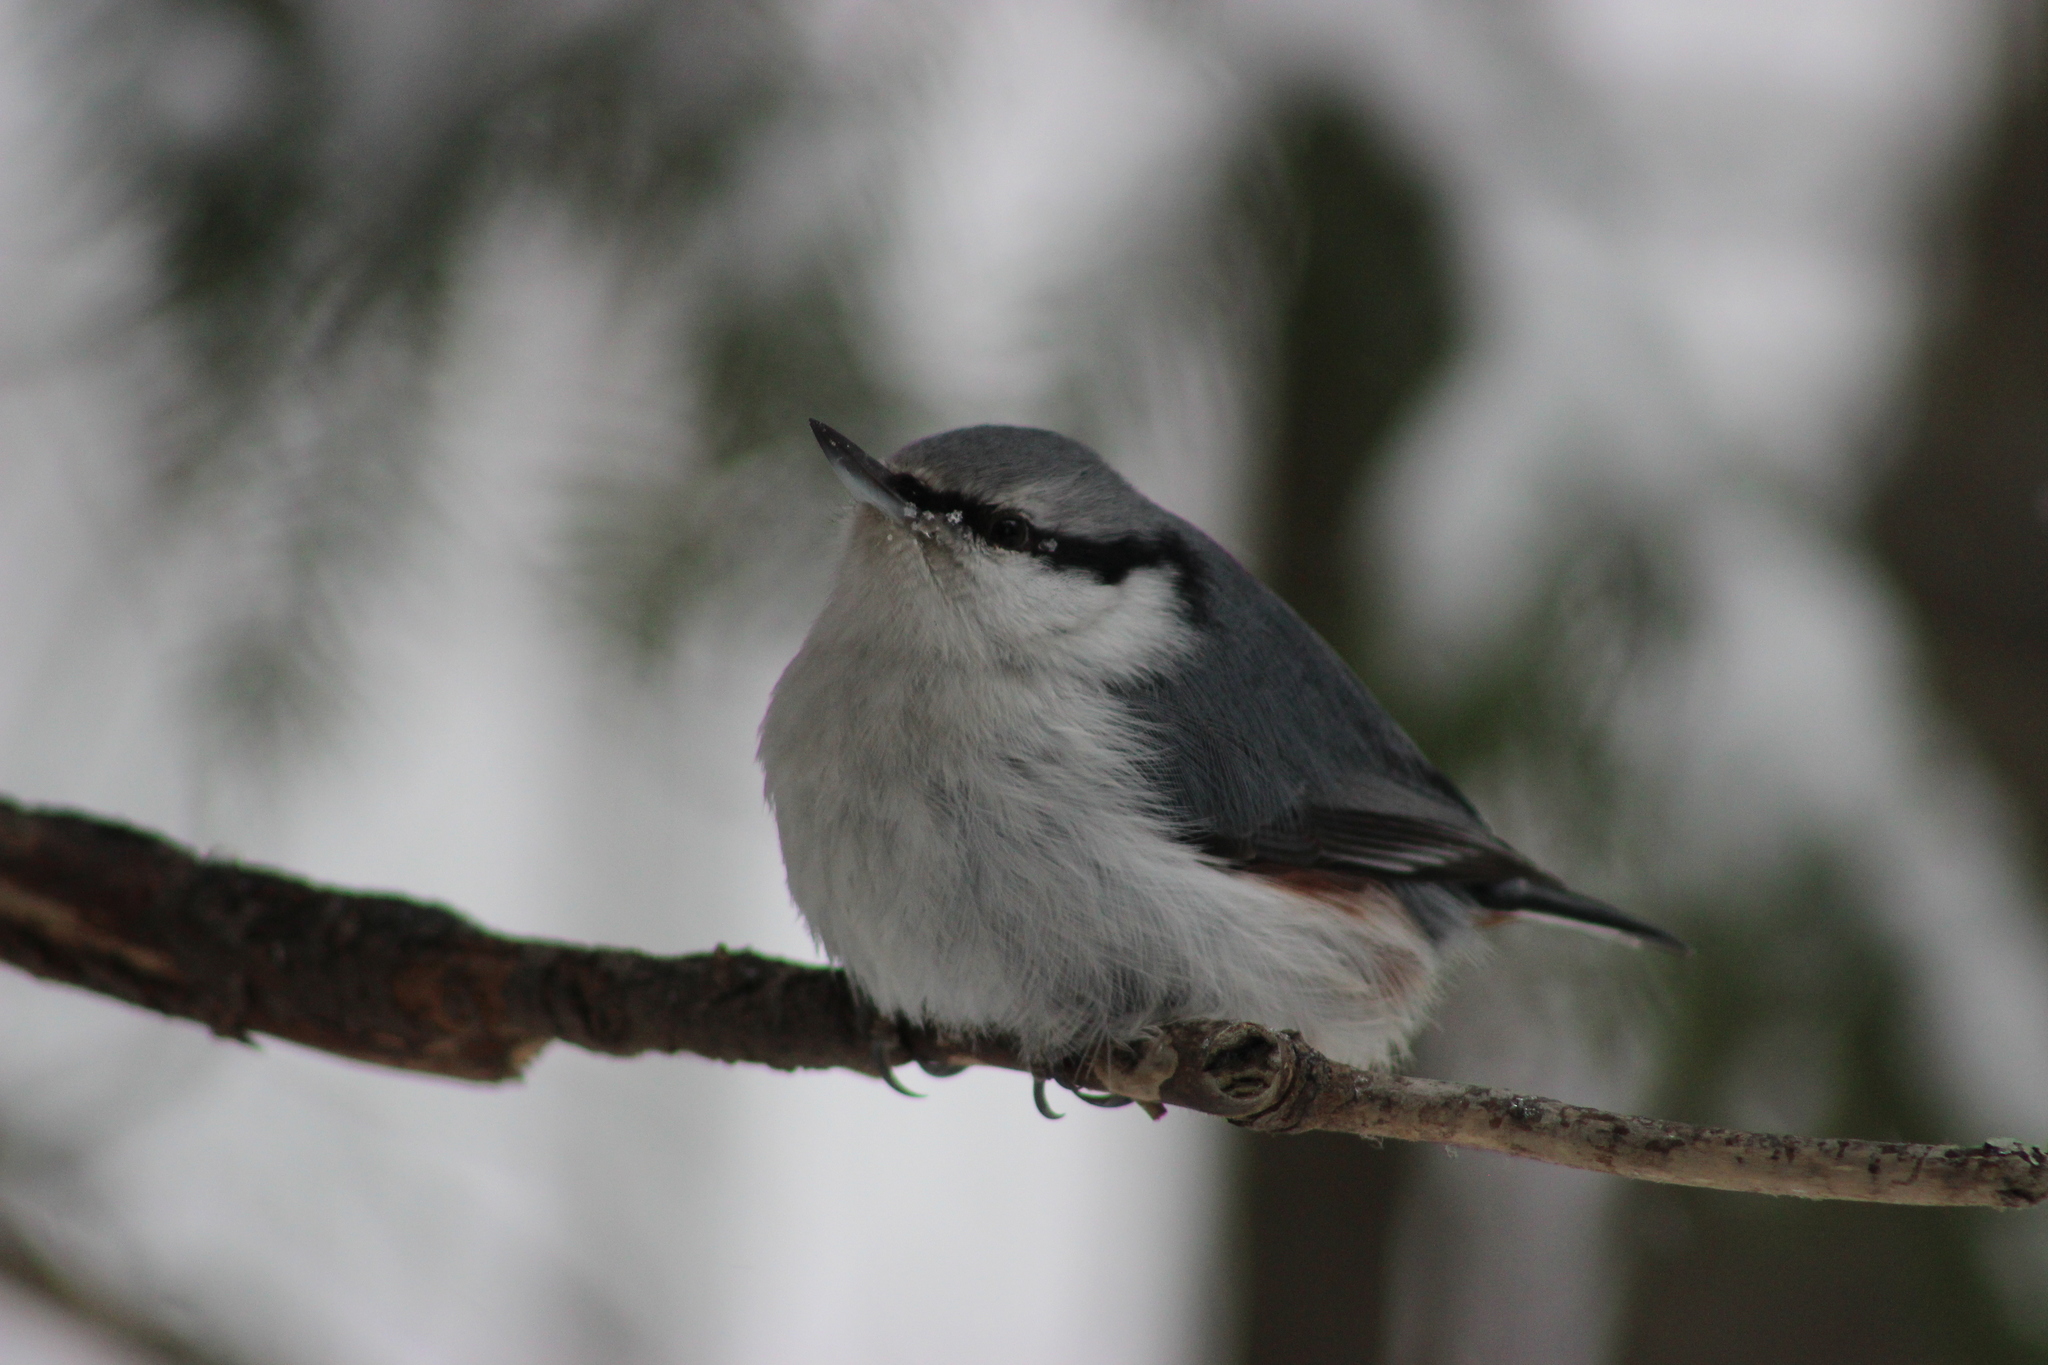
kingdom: Animalia
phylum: Chordata
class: Aves
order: Passeriformes
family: Sittidae
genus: Sitta
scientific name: Sitta europaea
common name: Eurasian nuthatch
